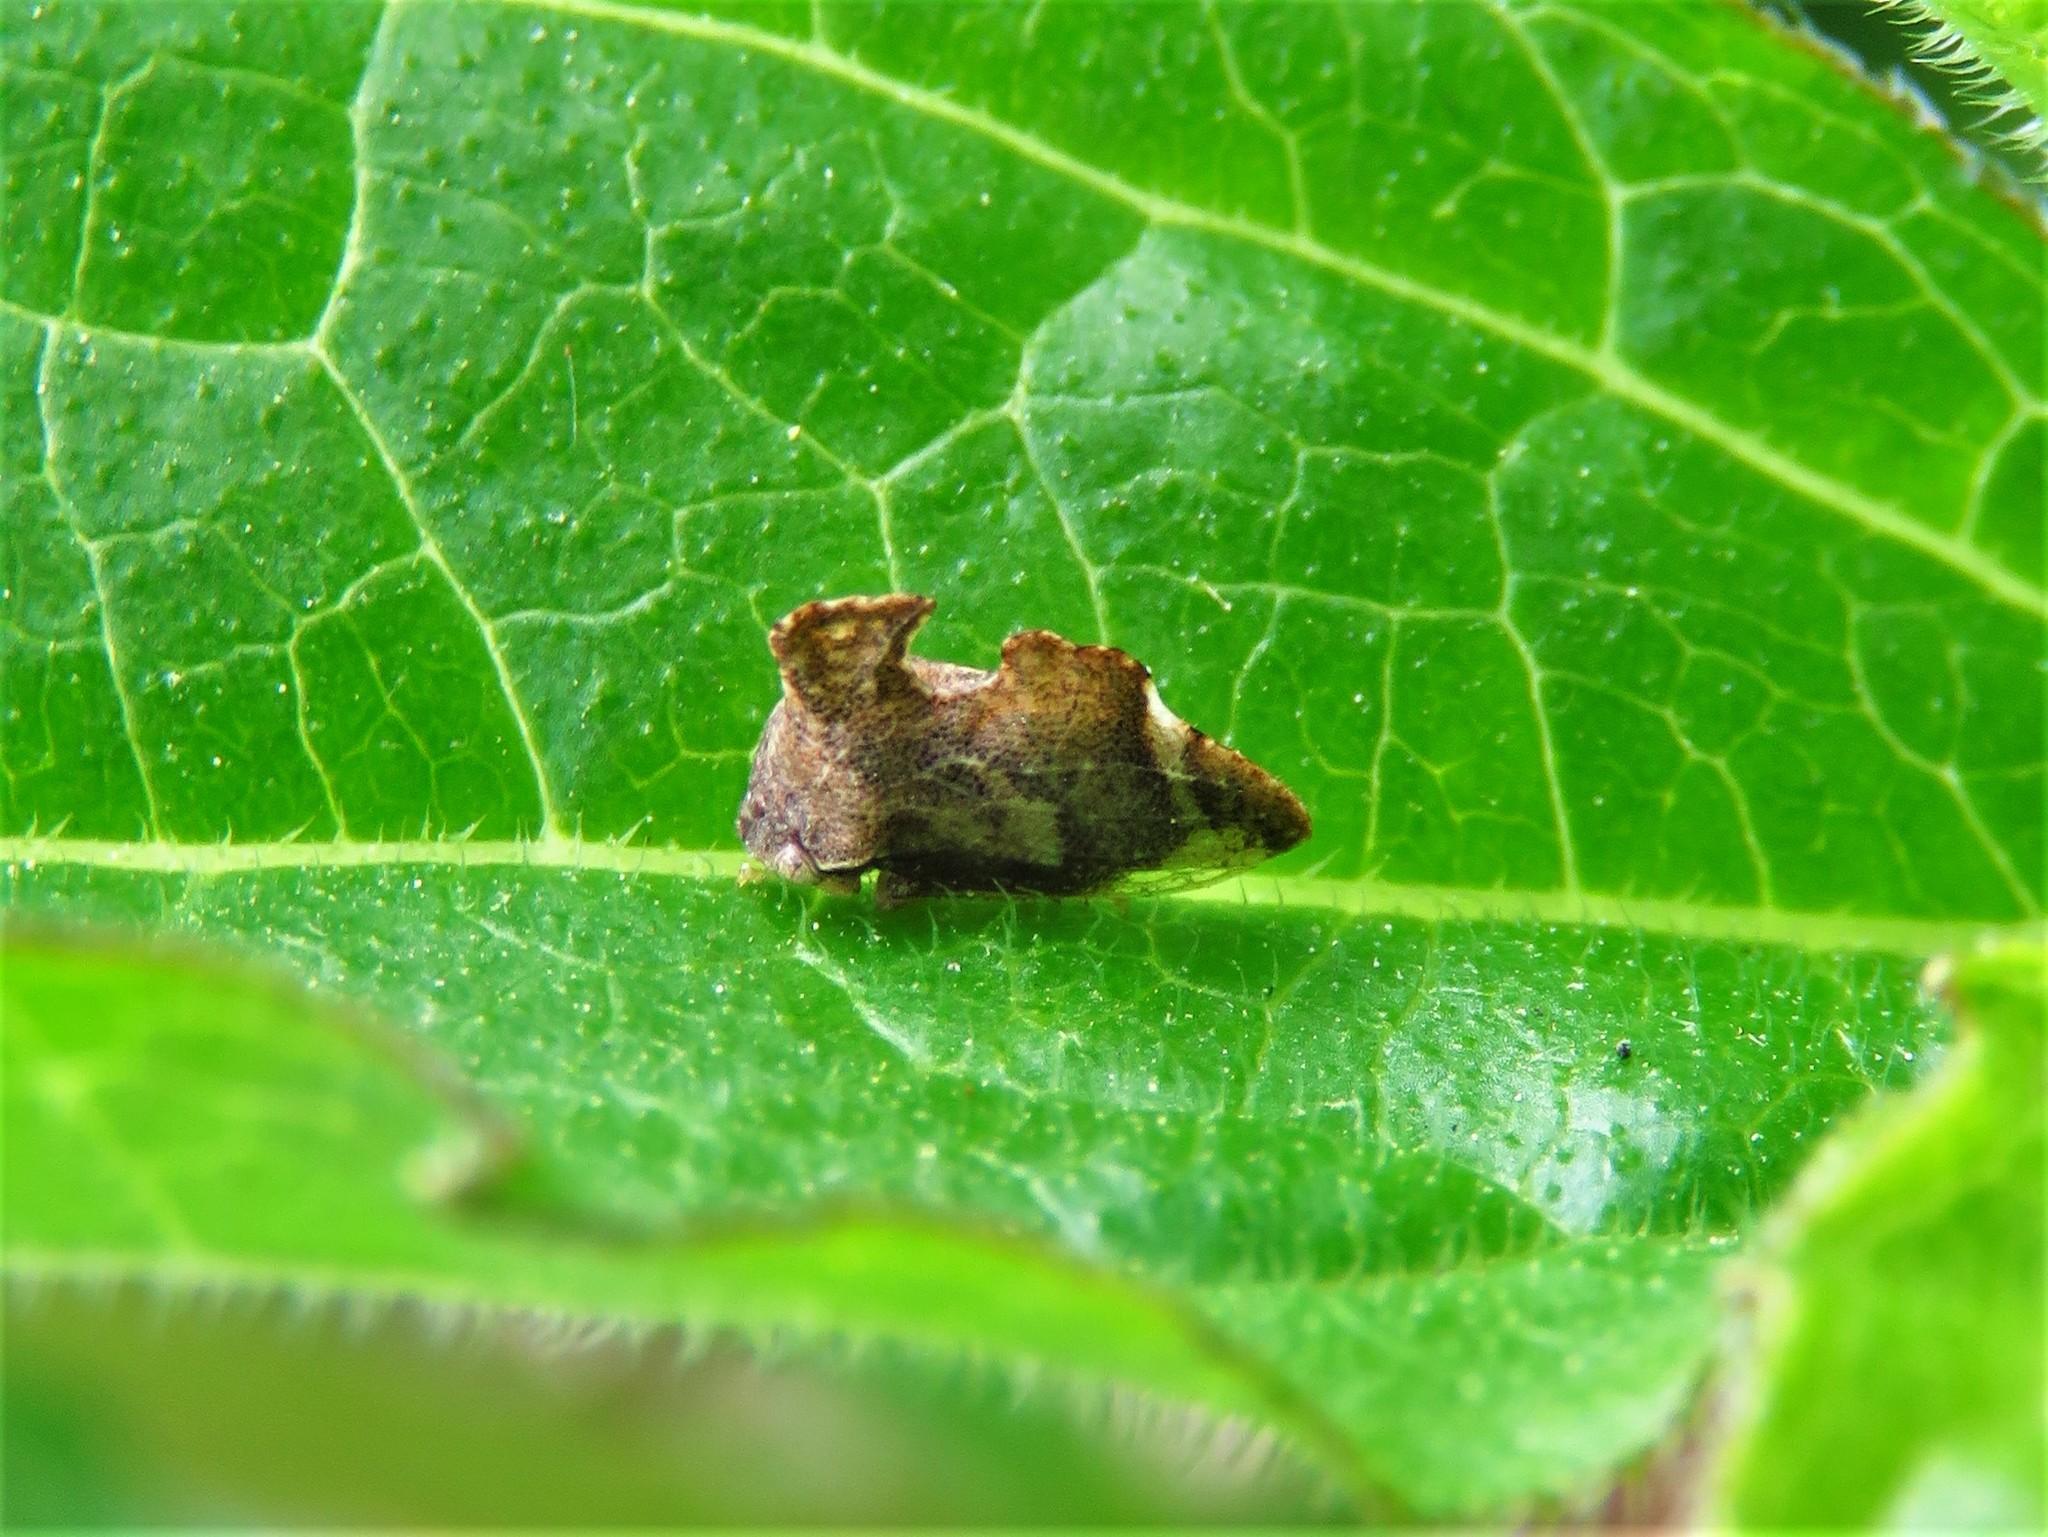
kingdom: Animalia
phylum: Arthropoda
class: Insecta
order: Hemiptera
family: Membracidae
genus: Entylia
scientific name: Entylia carinata
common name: Keeled treehopper
